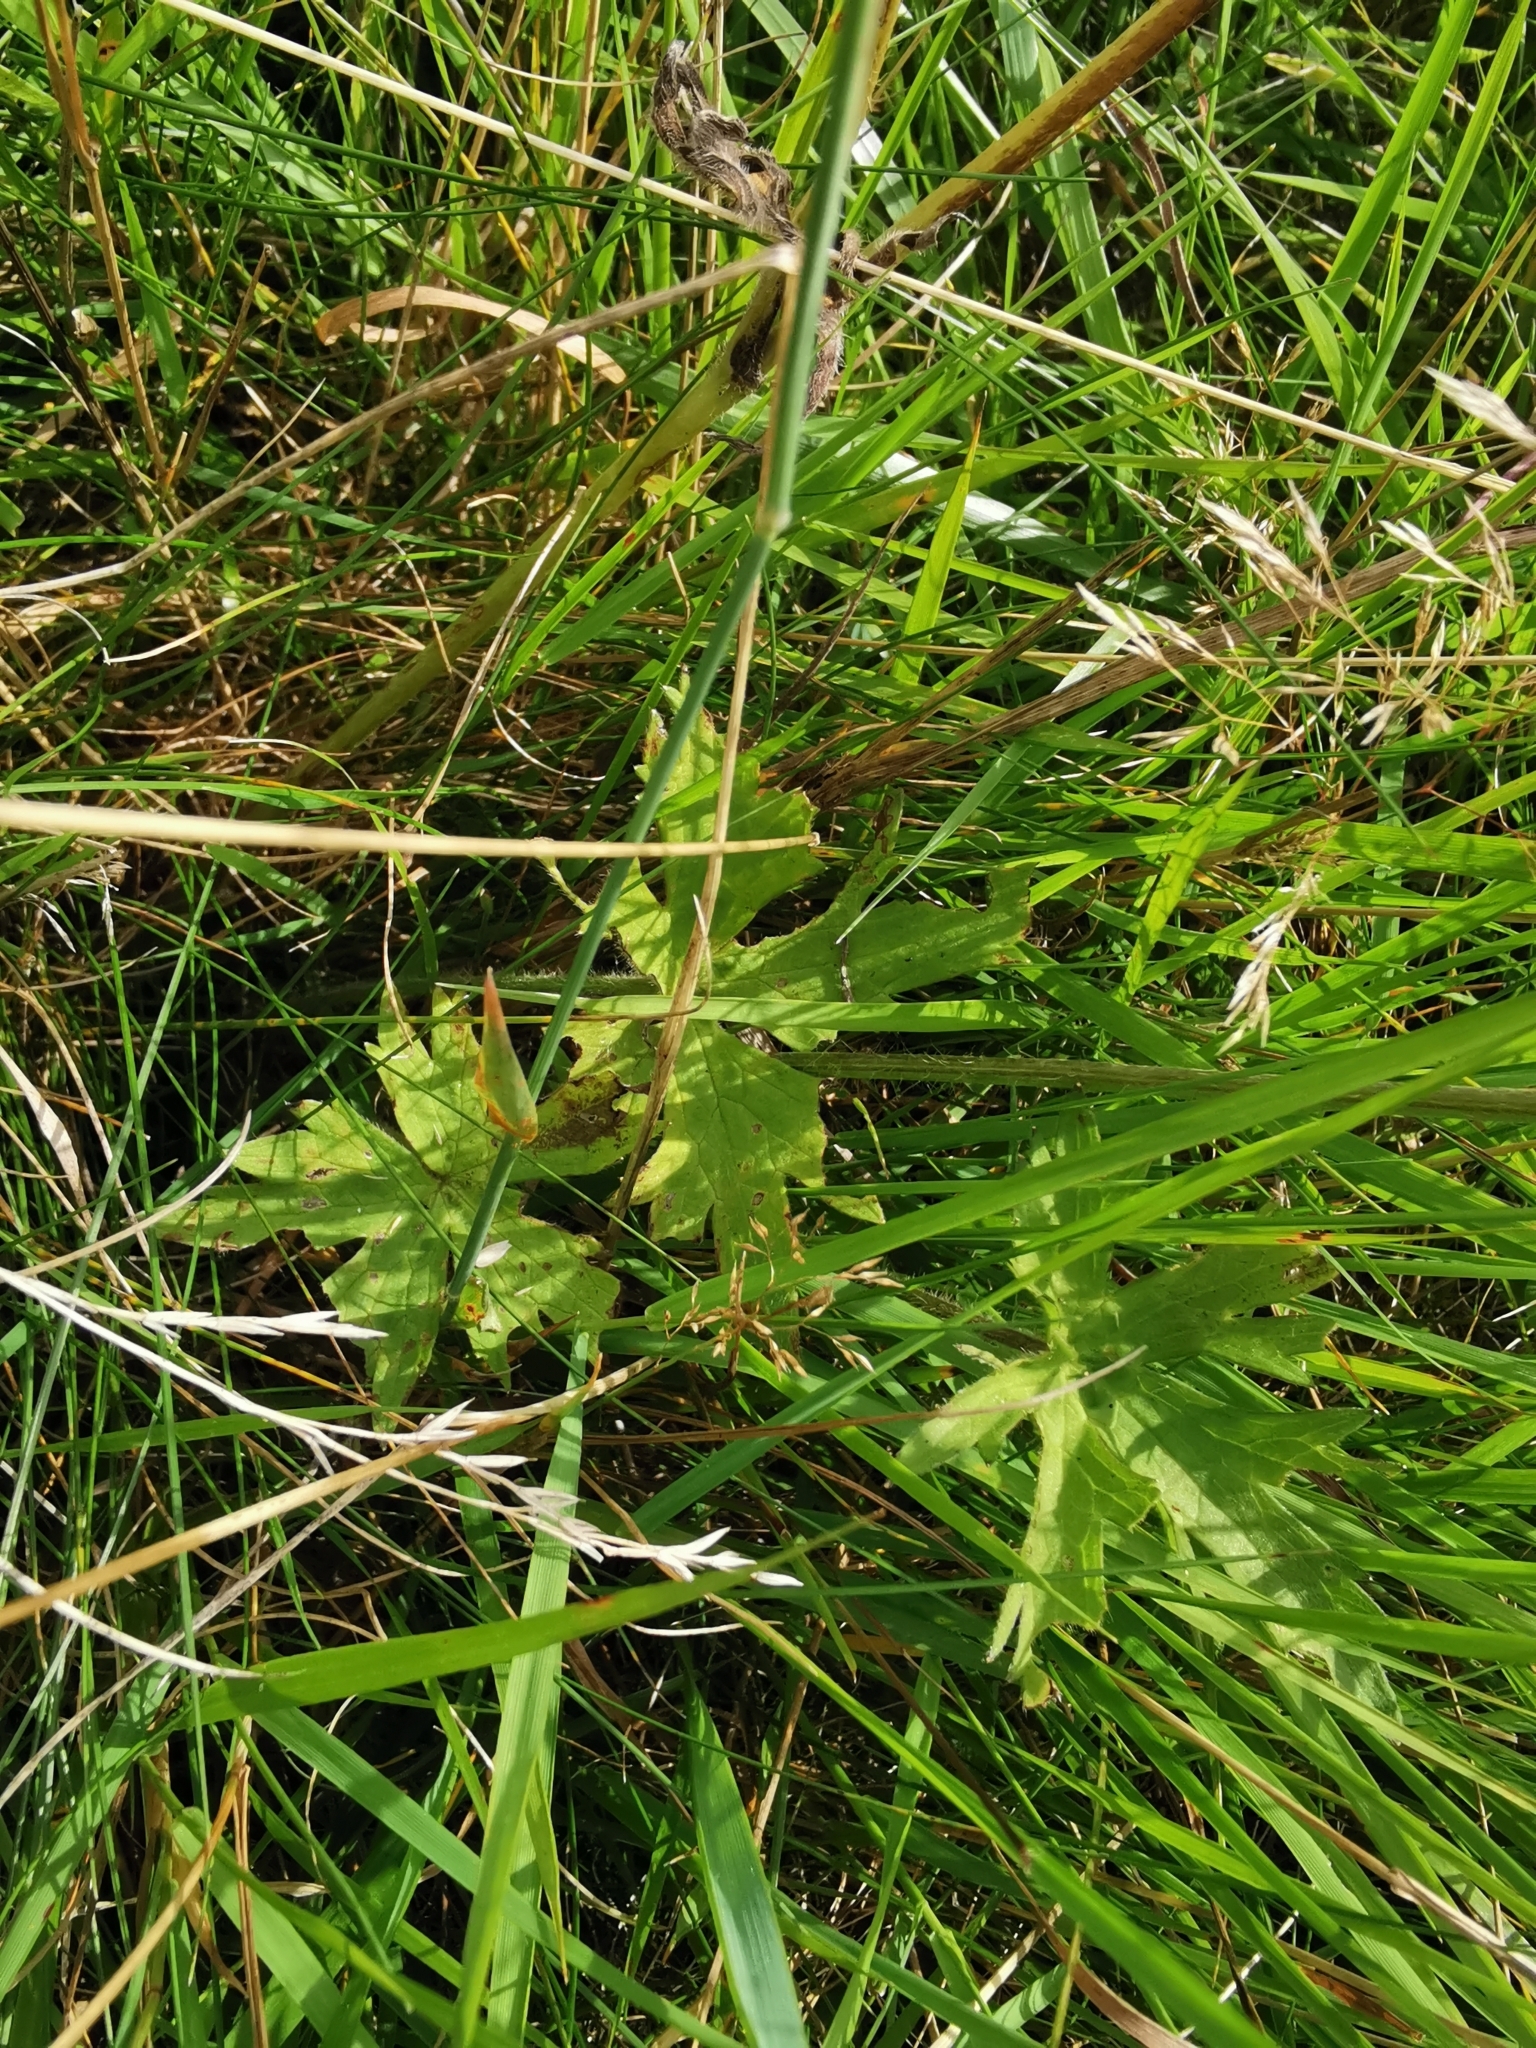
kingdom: Plantae
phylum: Tracheophyta
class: Magnoliopsida
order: Ranunculales
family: Ranunculaceae
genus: Ranunculus
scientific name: Ranunculus acris
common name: Meadow buttercup
